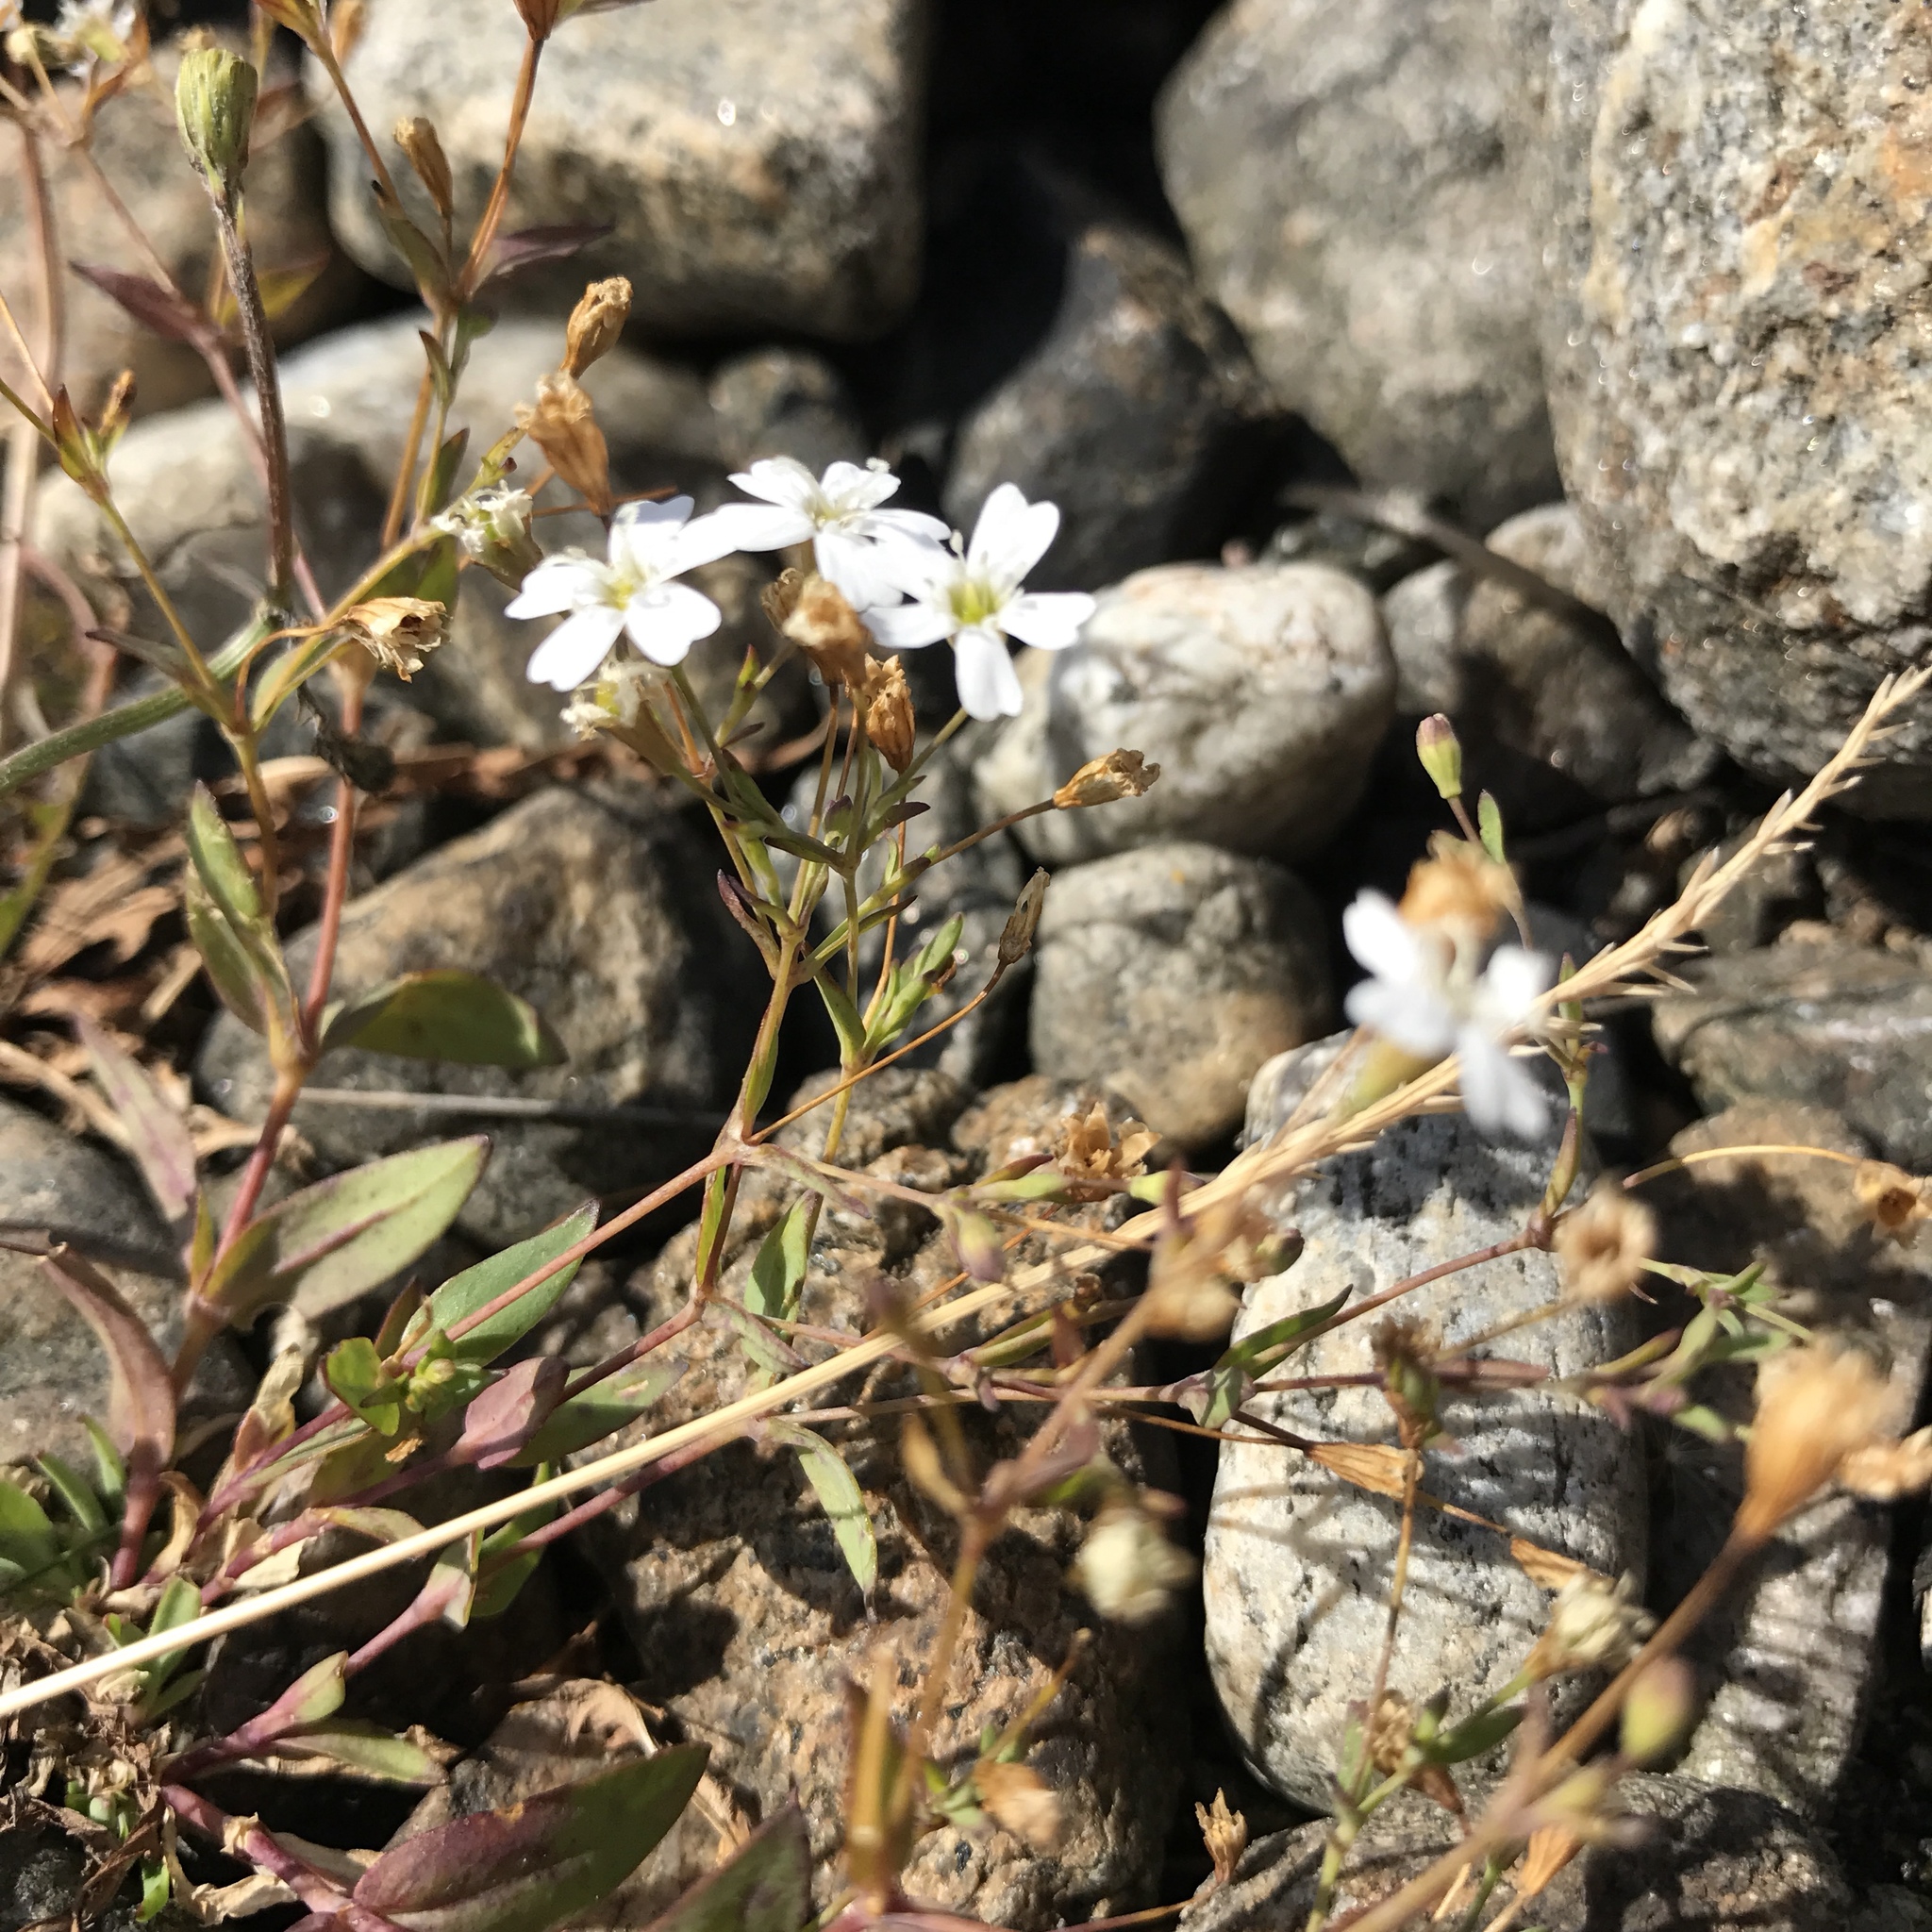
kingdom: Plantae
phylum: Tracheophyta
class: Magnoliopsida
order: Caryophyllales
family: Caryophyllaceae
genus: Atocion
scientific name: Atocion rupestre
